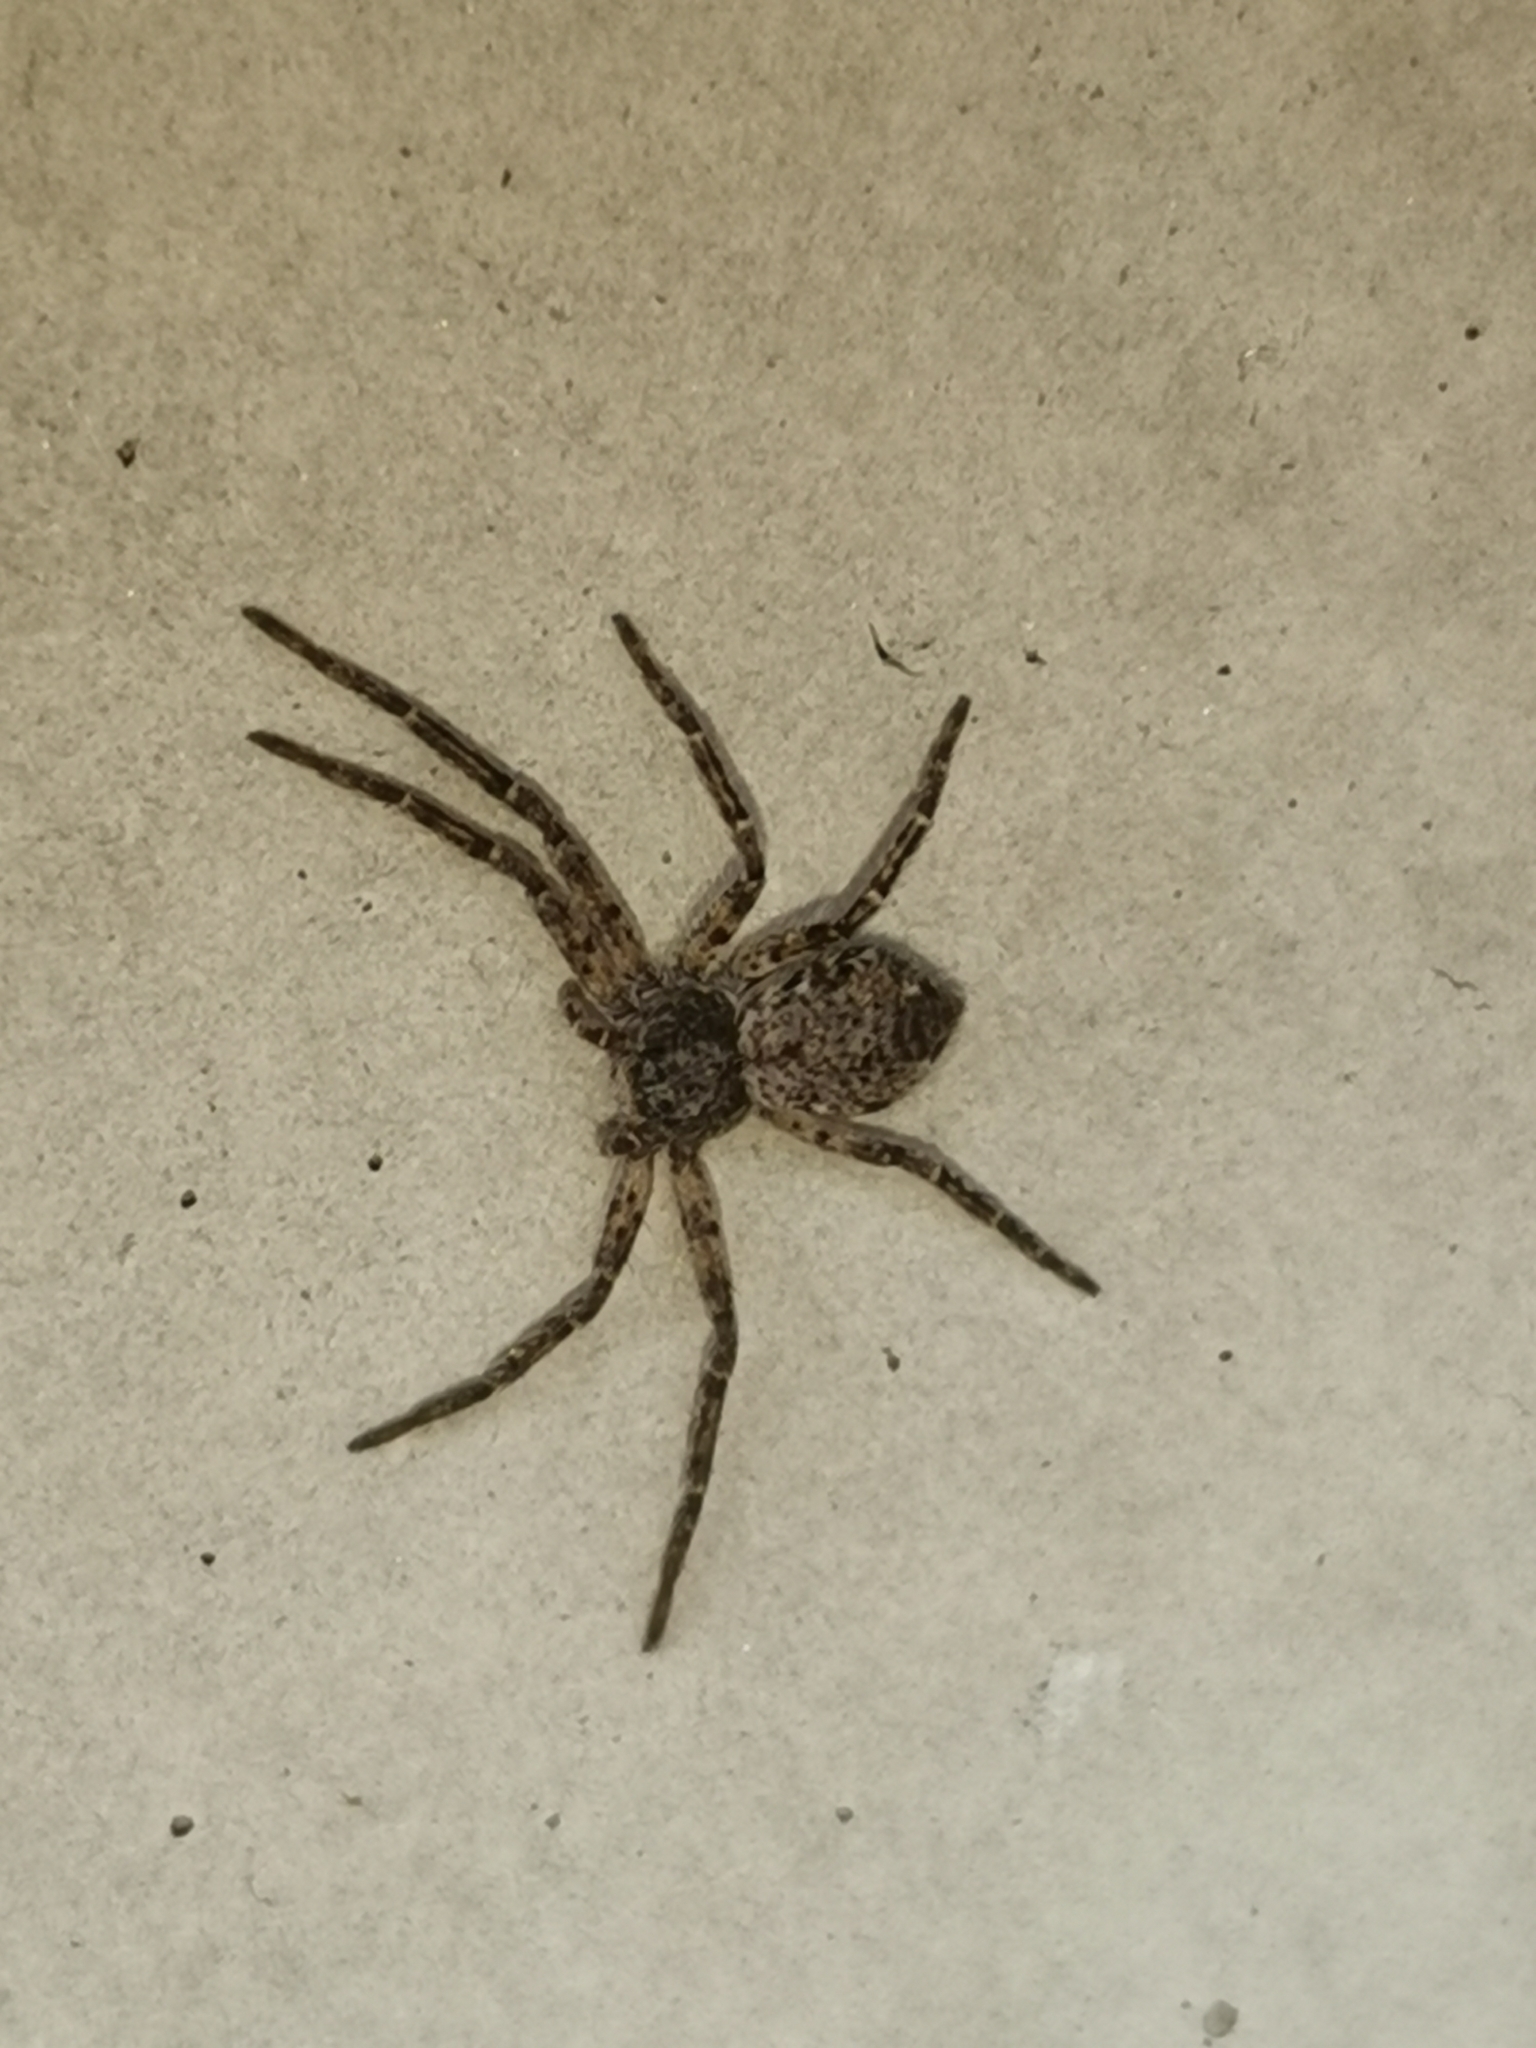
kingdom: Animalia
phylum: Arthropoda
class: Arachnida
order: Araneae
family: Philodromidae
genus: Philodromus
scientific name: Philodromus emarginatus
